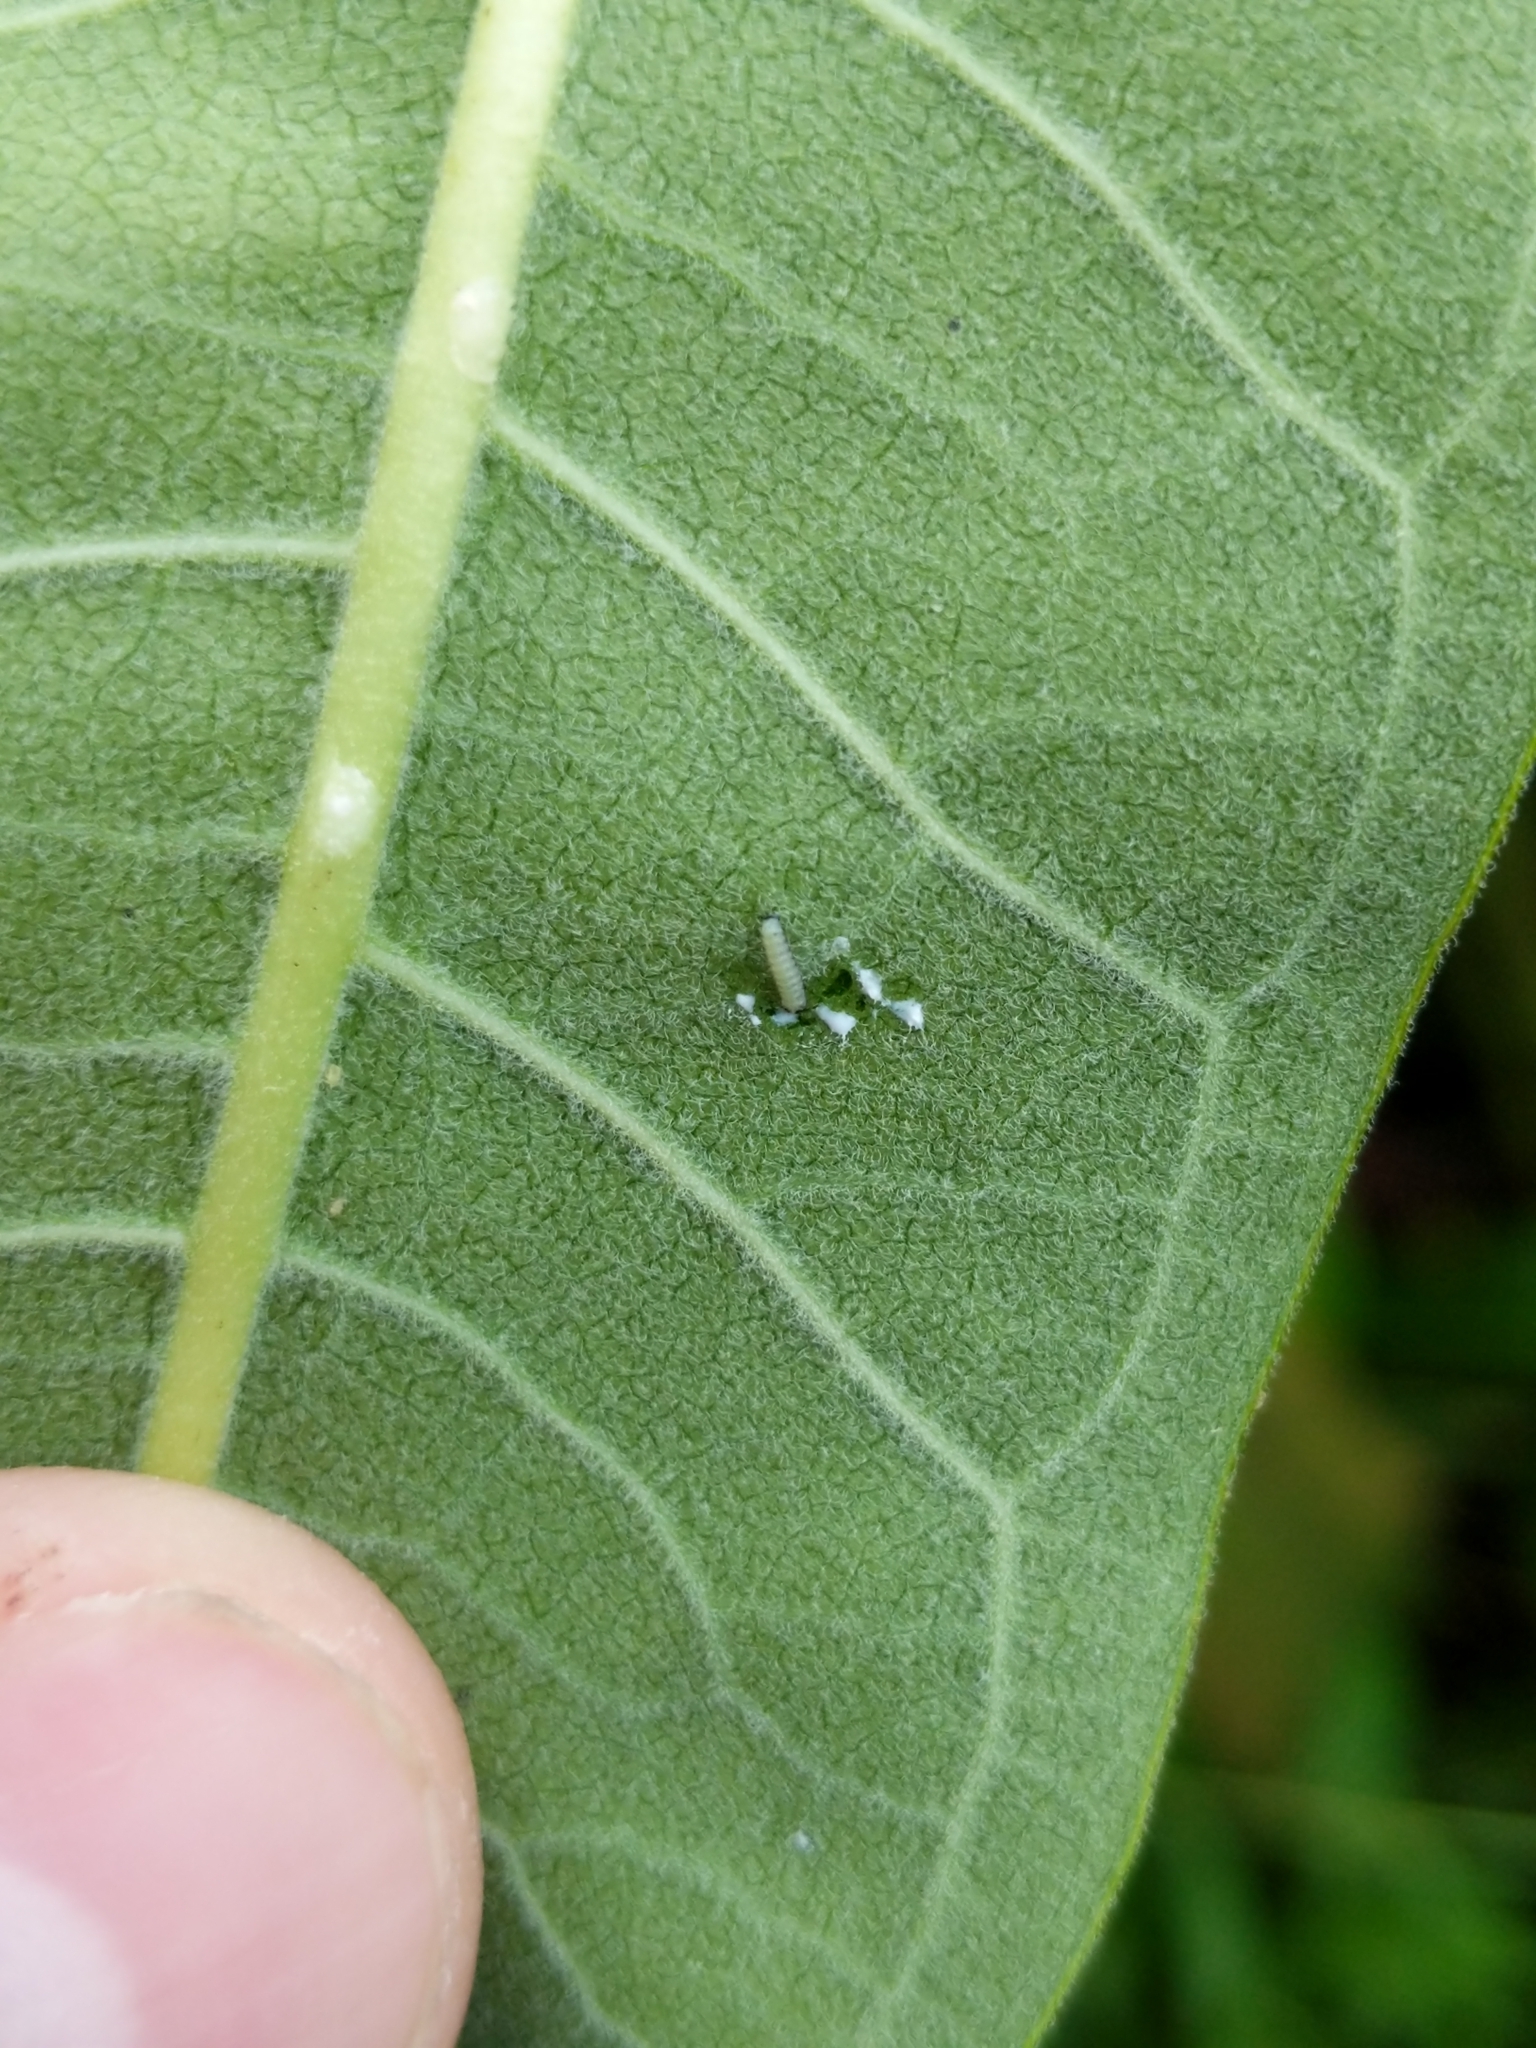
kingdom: Animalia
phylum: Arthropoda
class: Insecta
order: Lepidoptera
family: Nymphalidae
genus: Danaus
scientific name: Danaus plexippus
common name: Monarch
